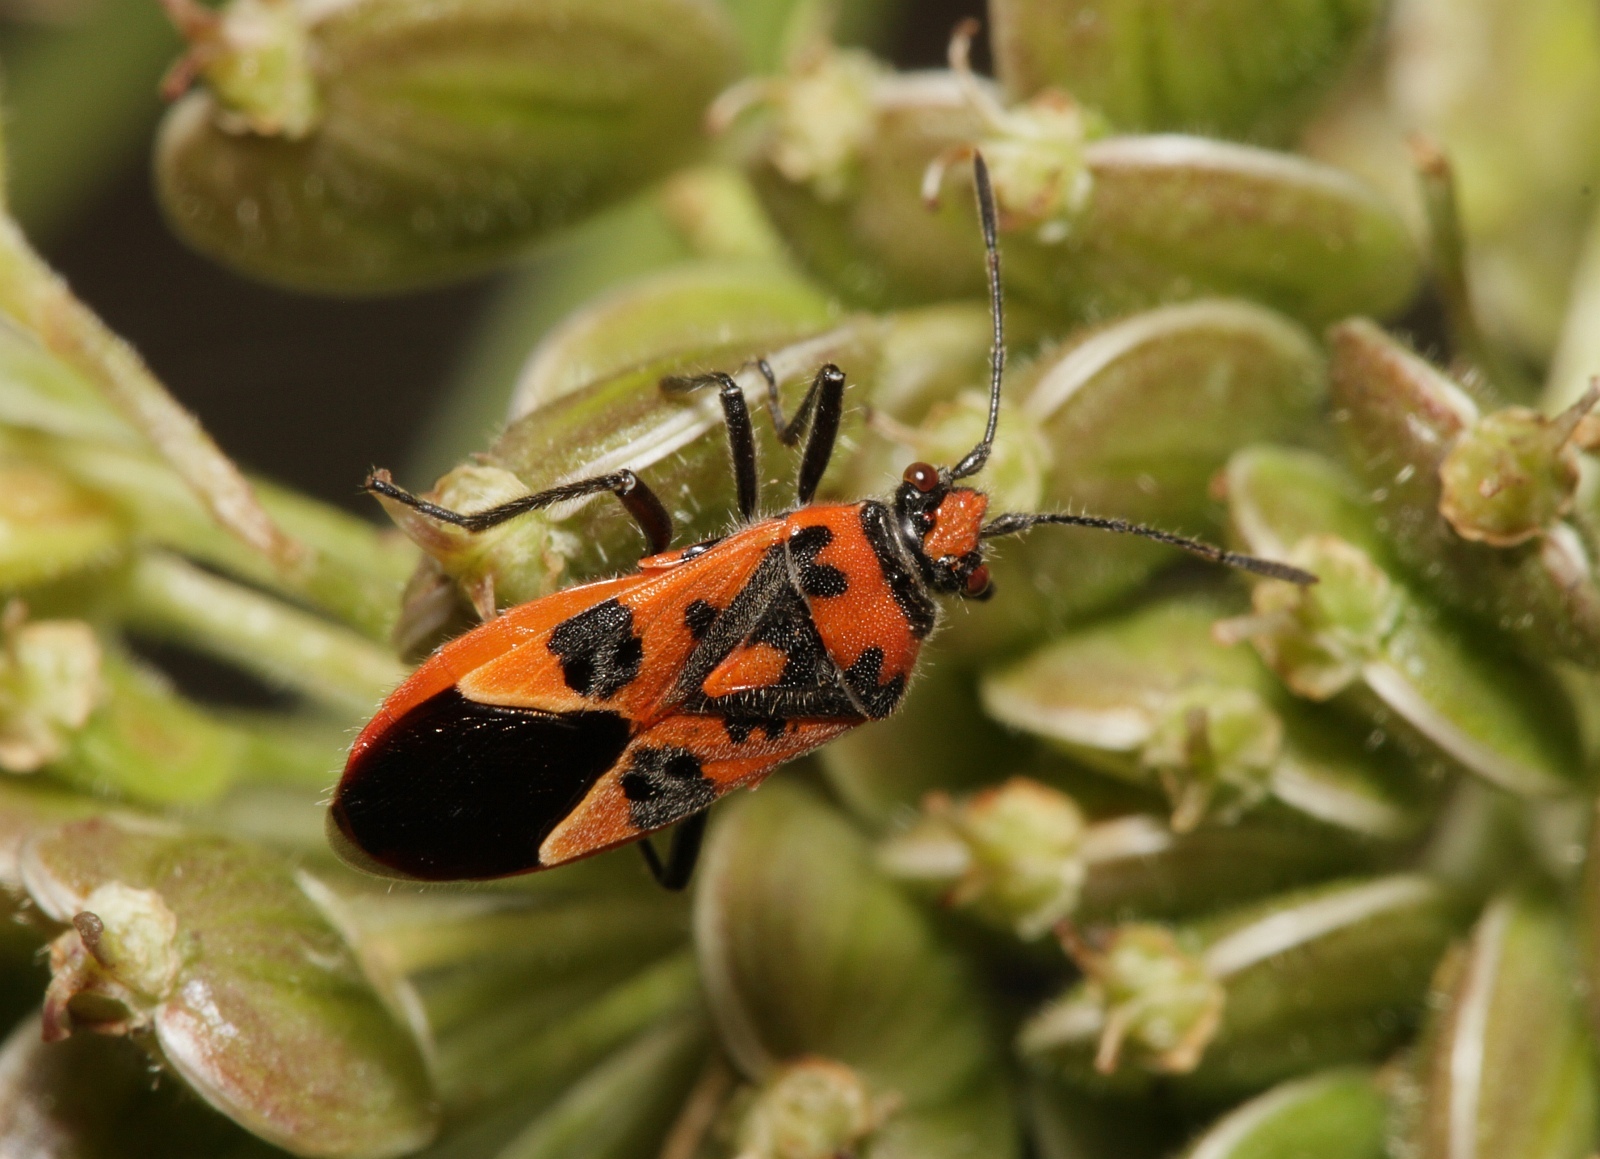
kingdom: Animalia
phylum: Arthropoda
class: Insecta
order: Hemiptera
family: Rhopalidae
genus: Corizus
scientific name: Corizus hyoscyami
